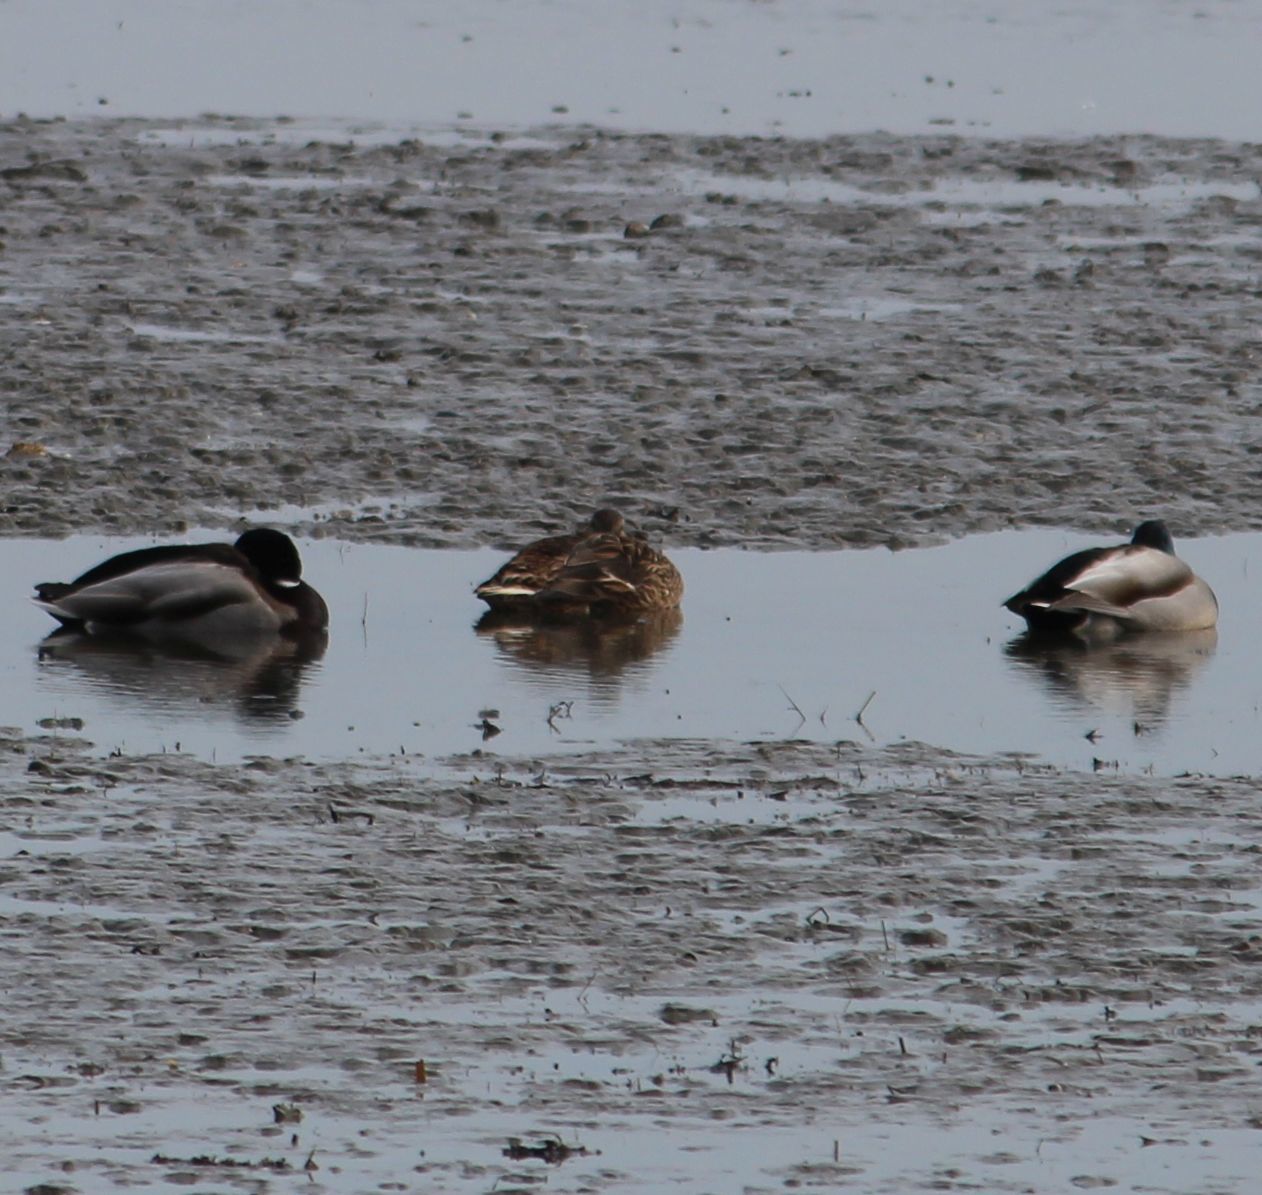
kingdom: Animalia
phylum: Chordata
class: Aves
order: Anseriformes
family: Anatidae
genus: Anas
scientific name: Anas platyrhynchos
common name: Mallard
